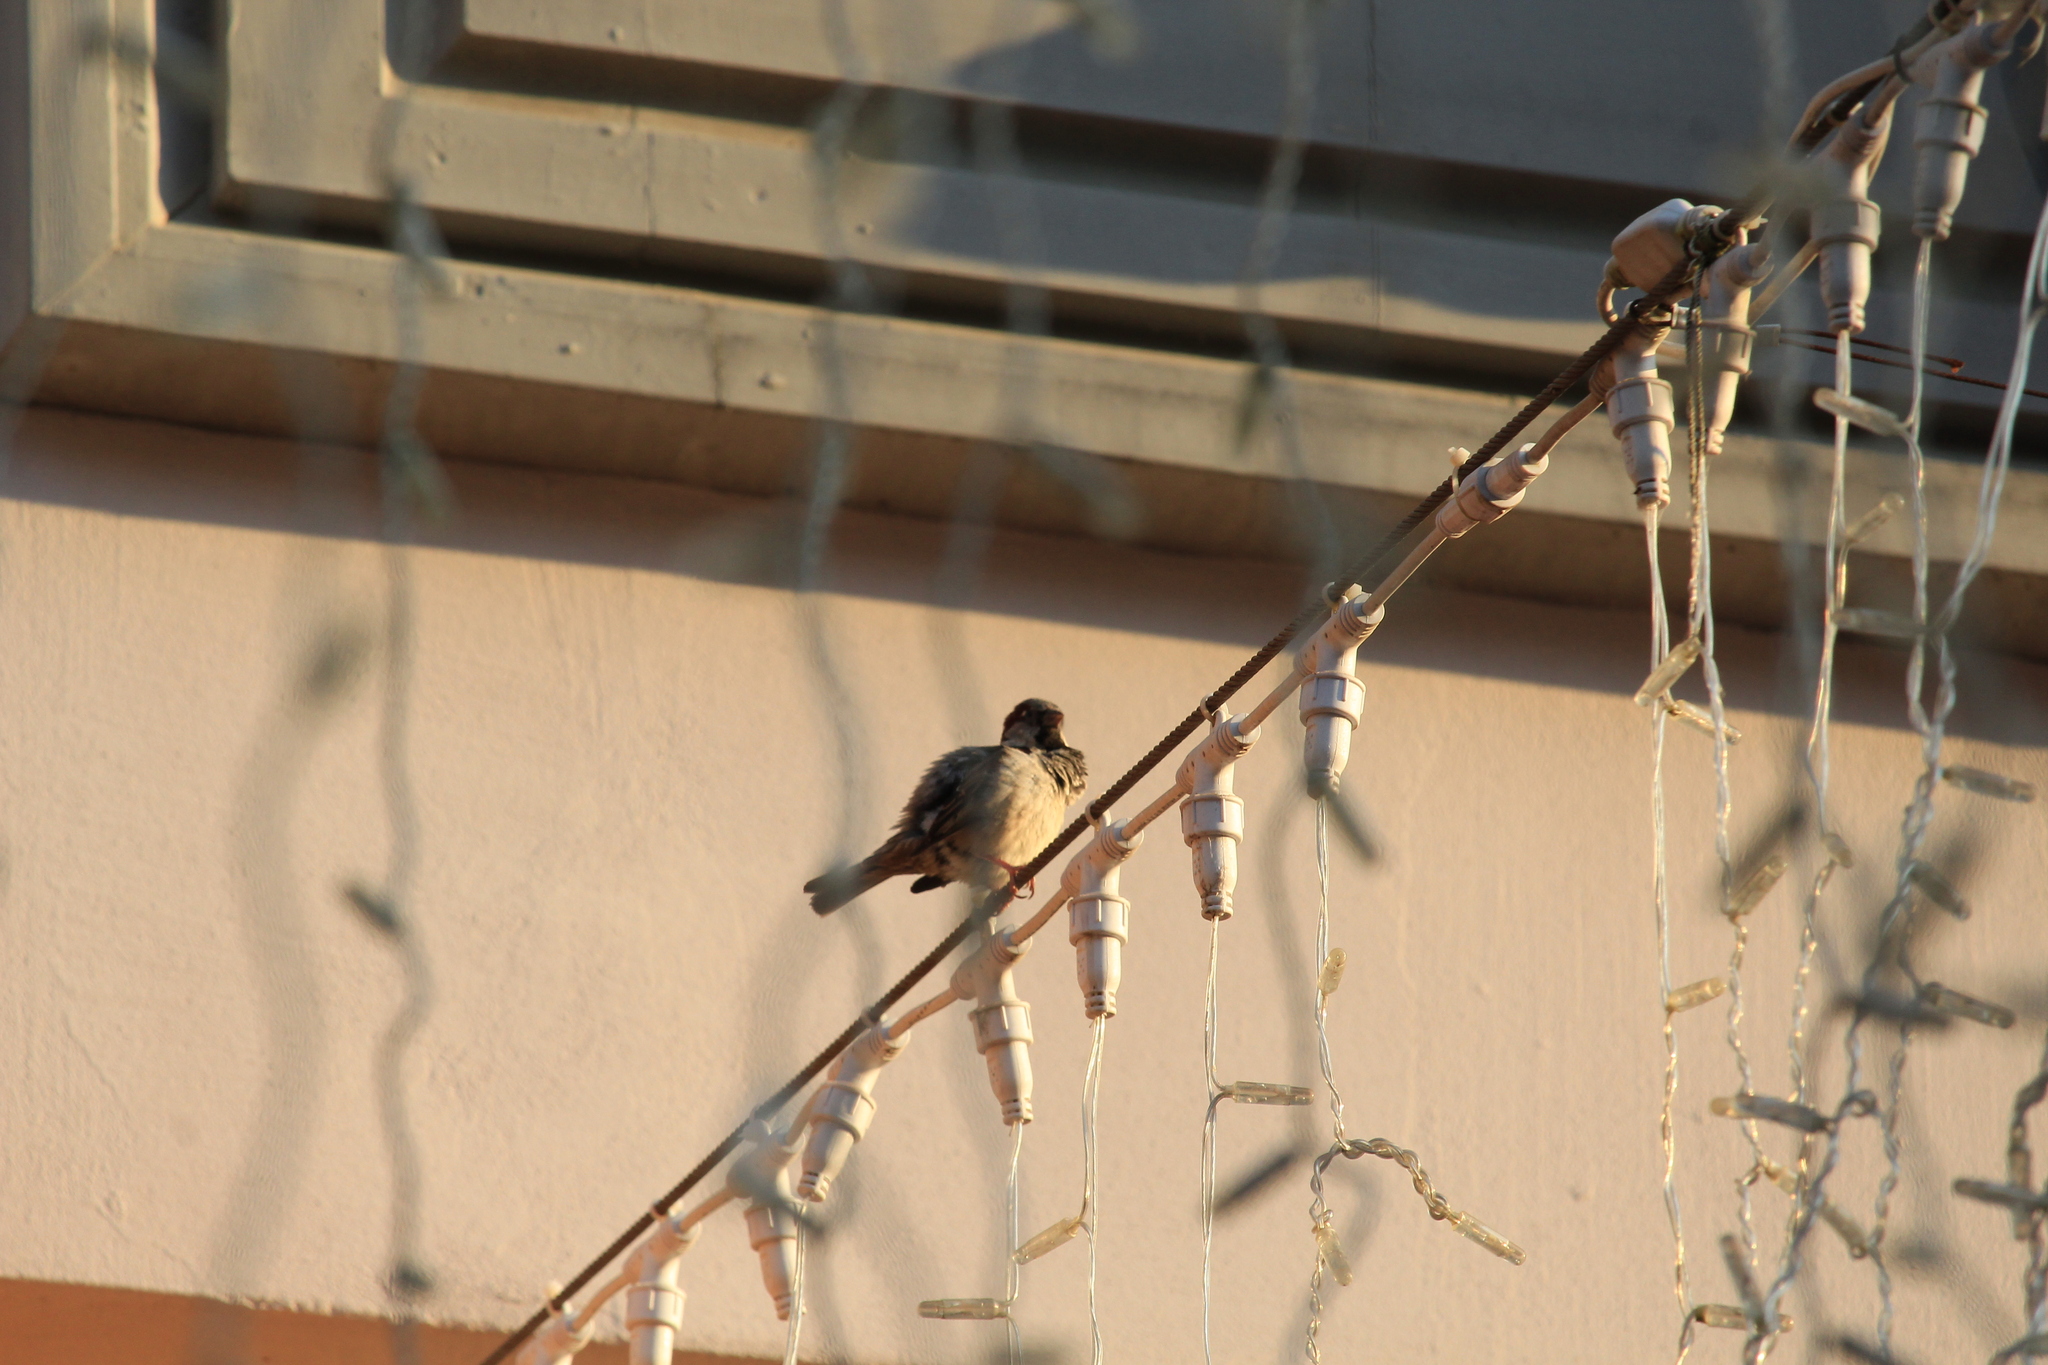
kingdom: Animalia
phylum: Chordata
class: Aves
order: Passeriformes
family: Passeridae
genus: Passer
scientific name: Passer domesticus
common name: House sparrow
